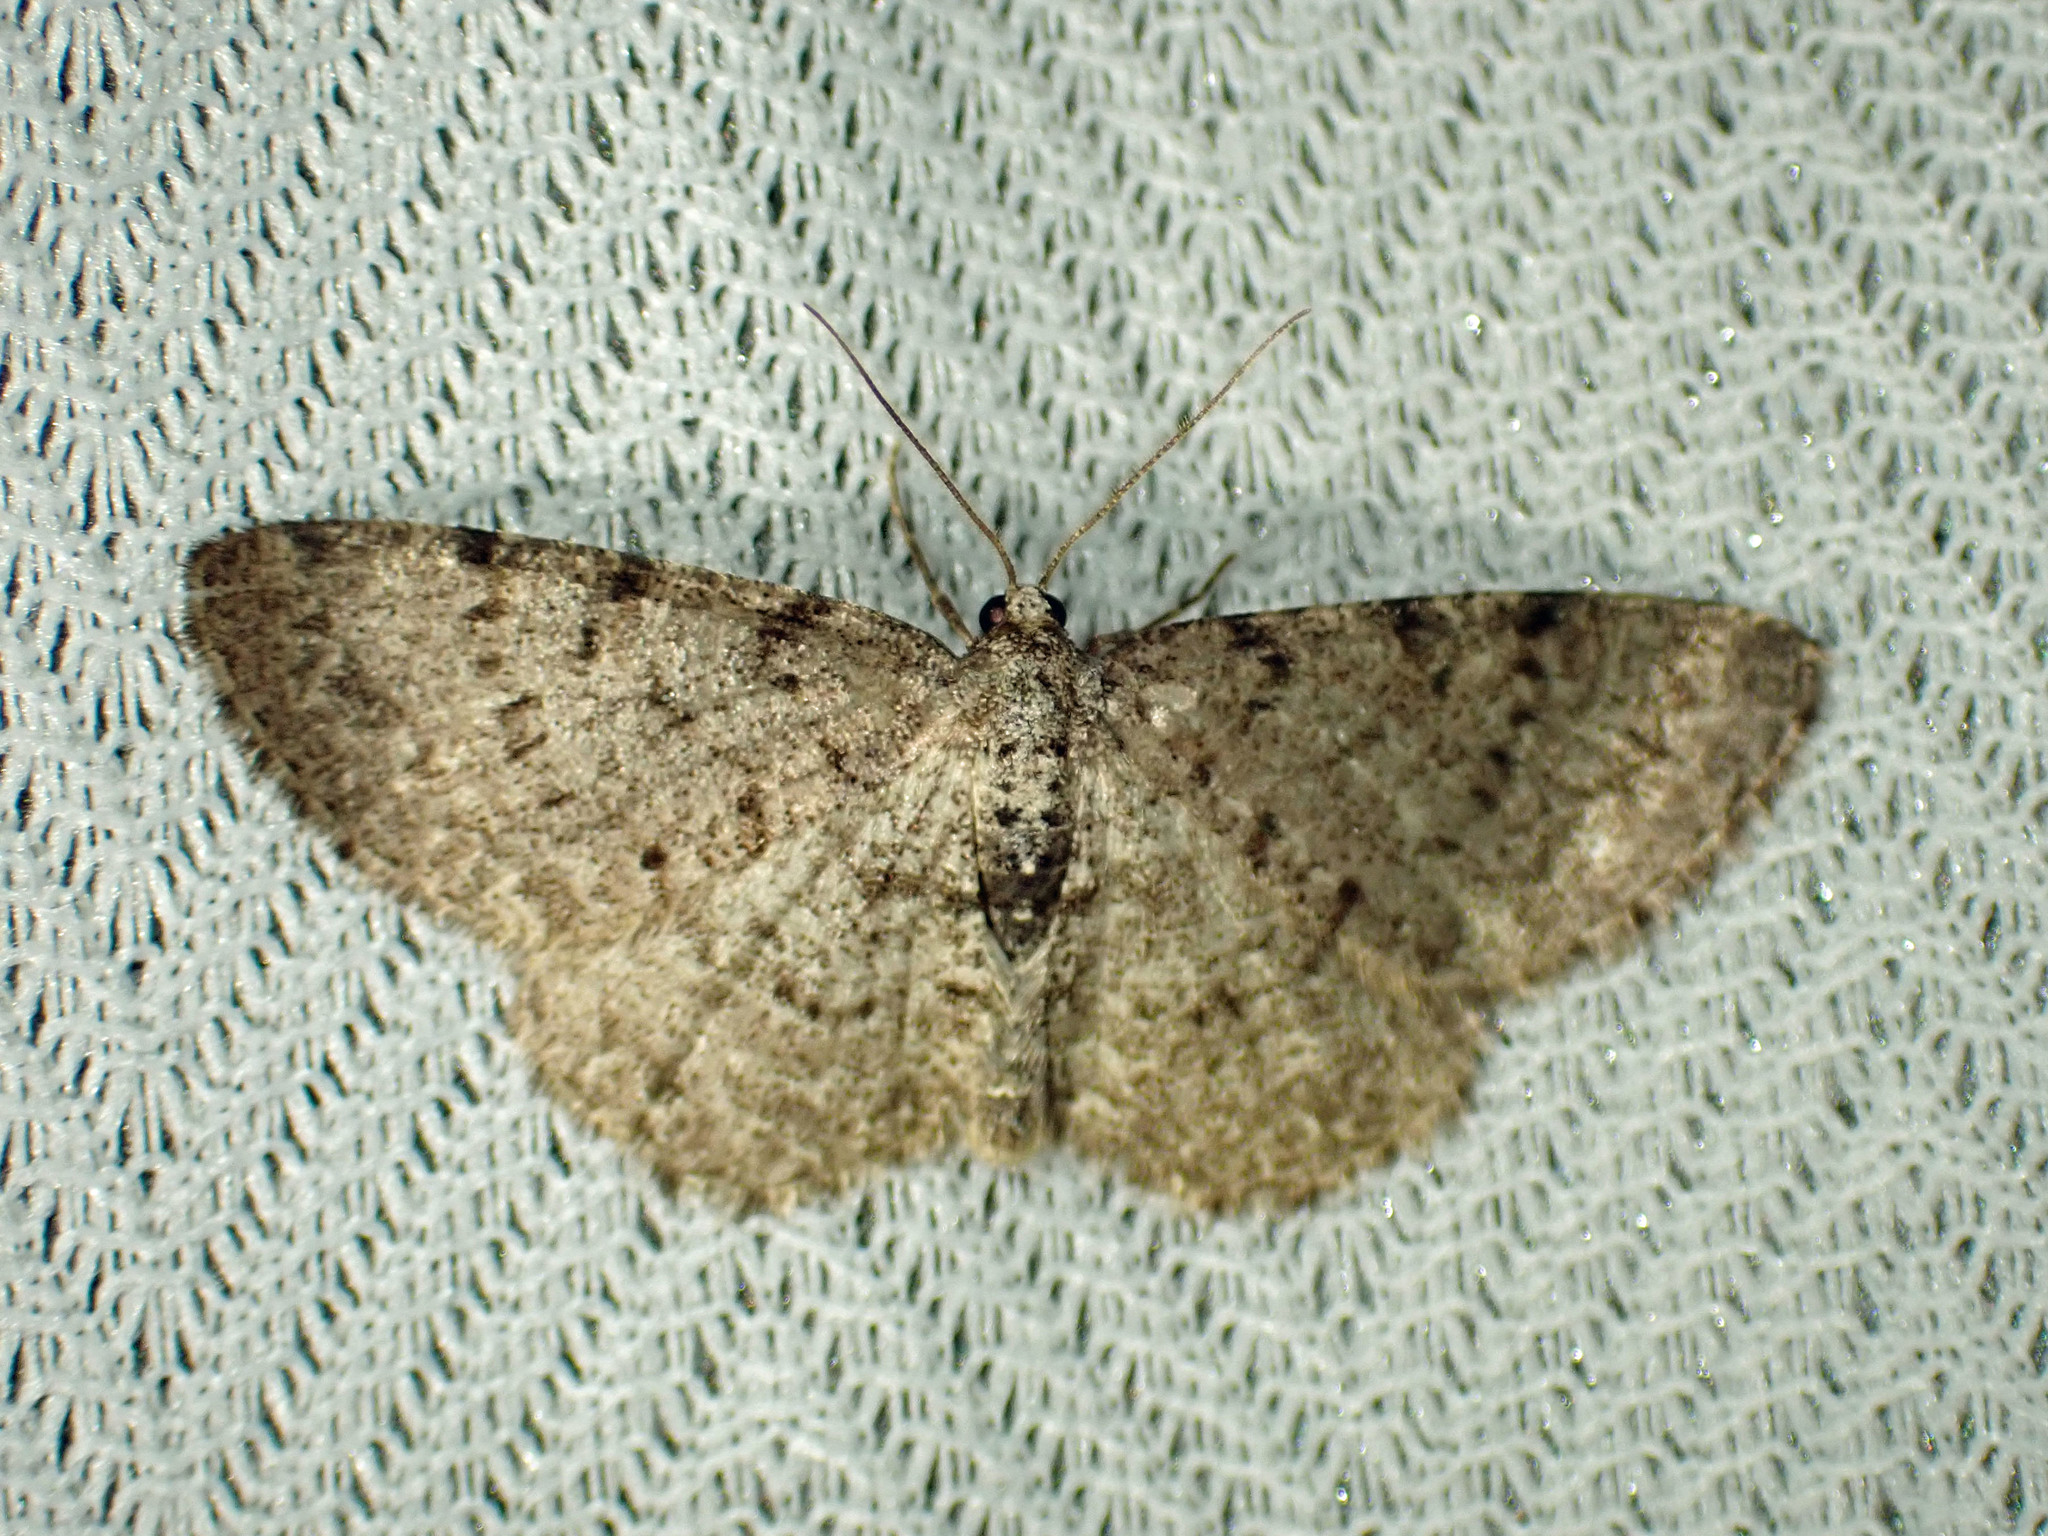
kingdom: Animalia
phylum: Arthropoda
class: Insecta
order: Lepidoptera
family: Geometridae
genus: Aethalura
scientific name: Aethalura intertexta
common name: Four-barred gray
